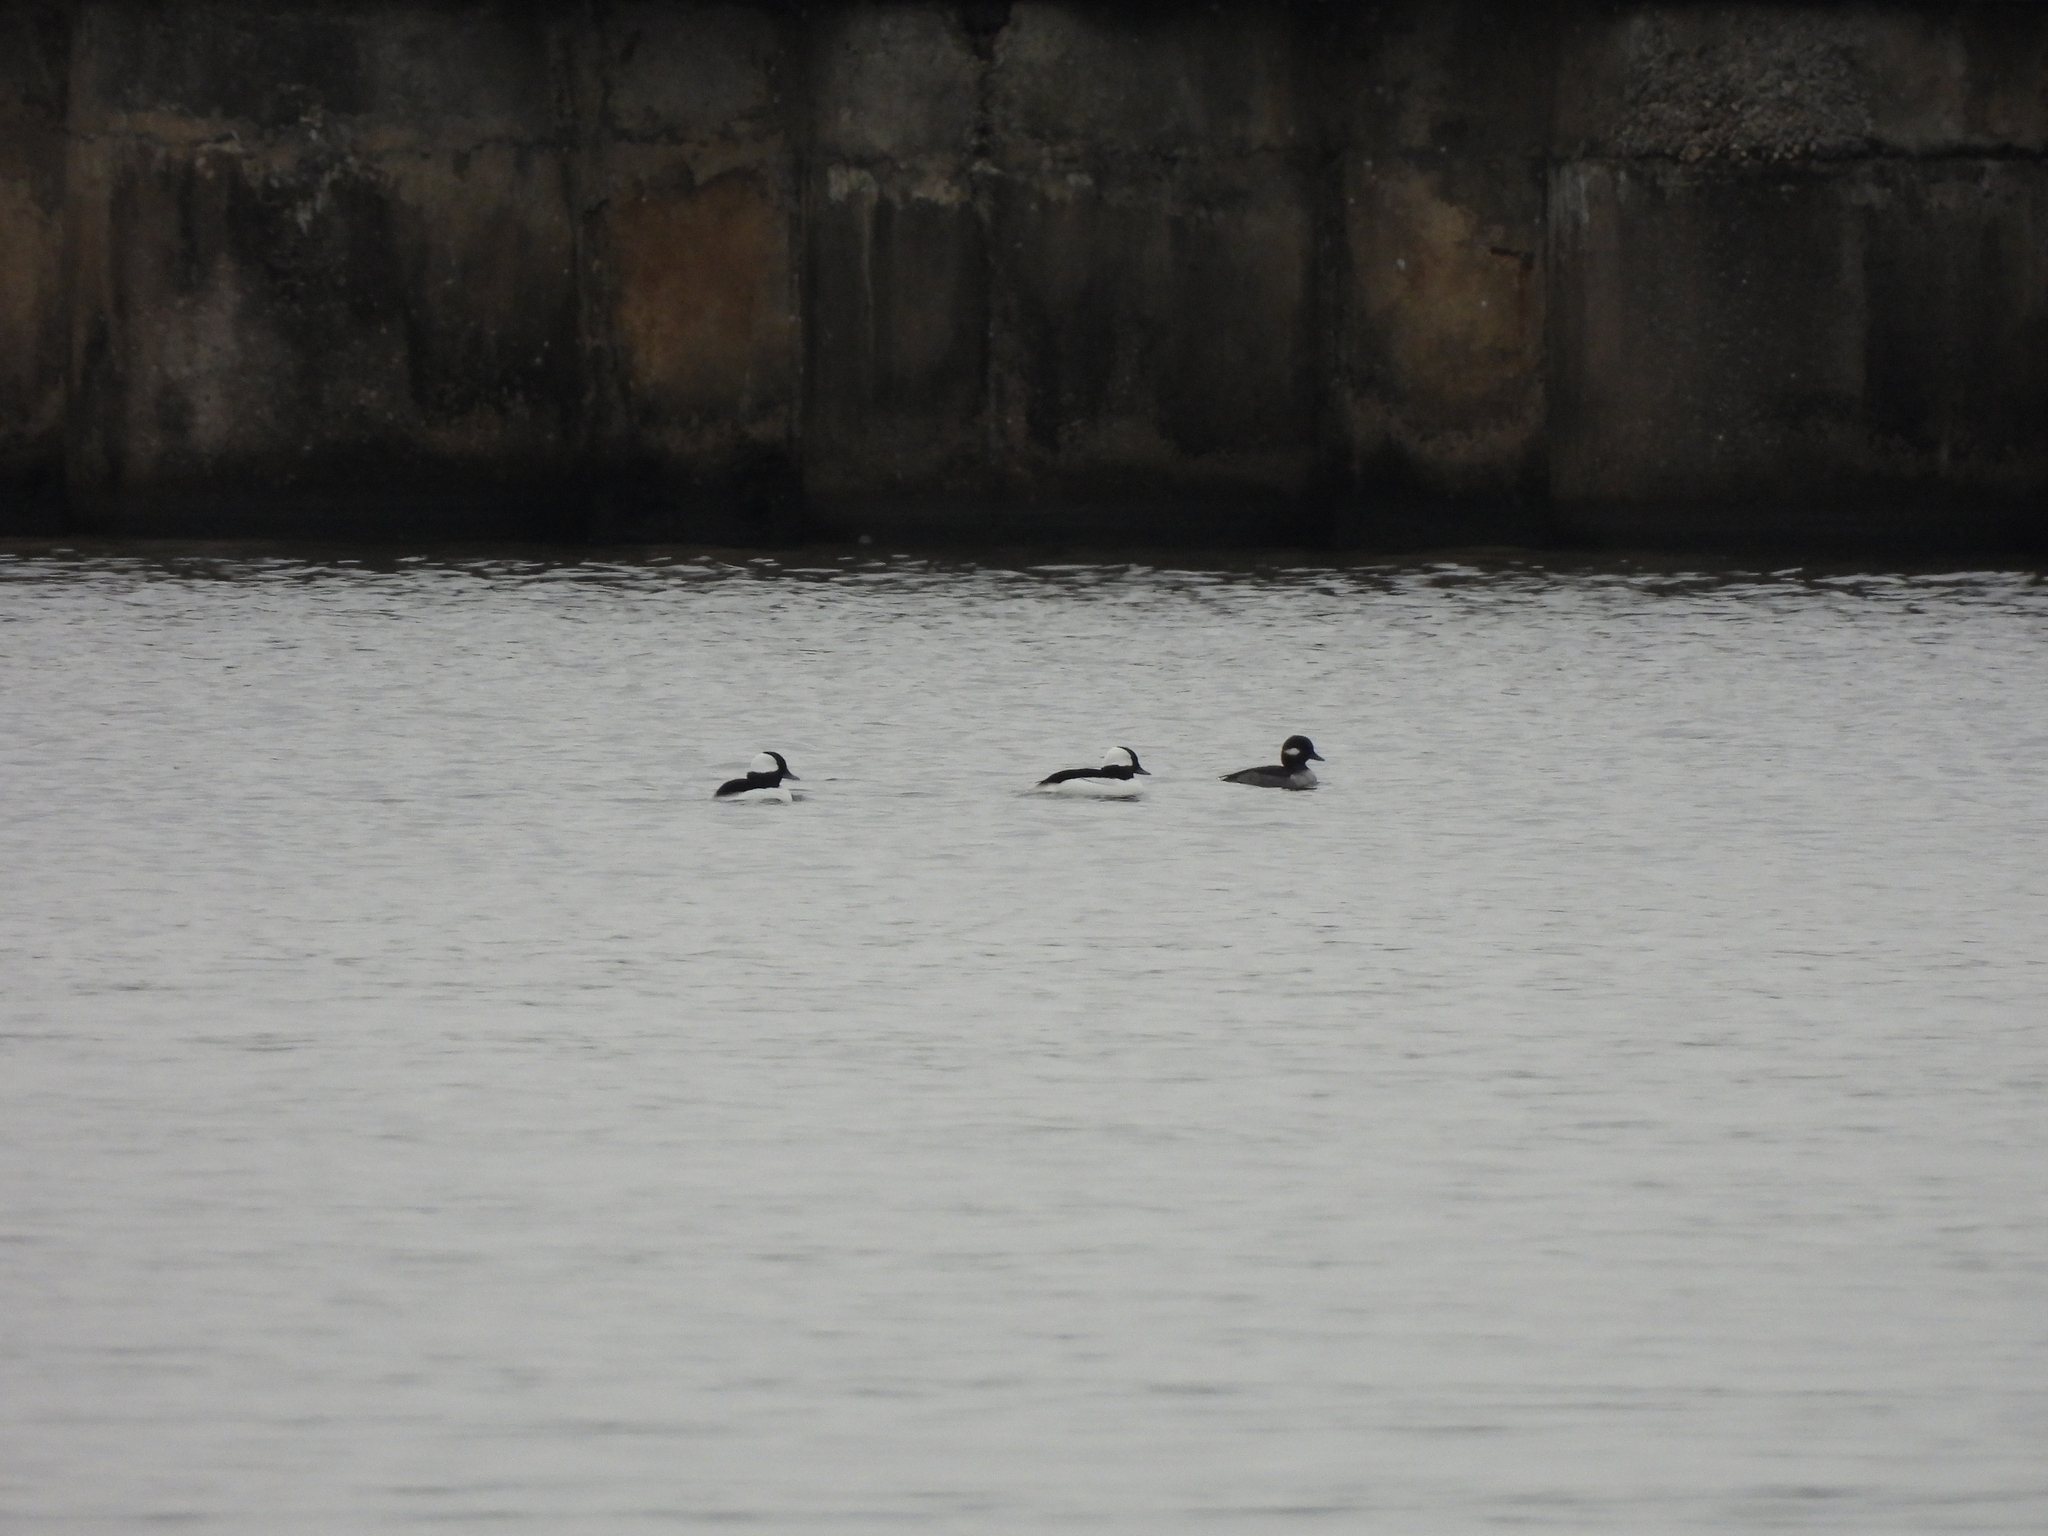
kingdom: Animalia
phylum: Chordata
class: Aves
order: Anseriformes
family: Anatidae
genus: Bucephala
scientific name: Bucephala albeola
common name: Bufflehead
